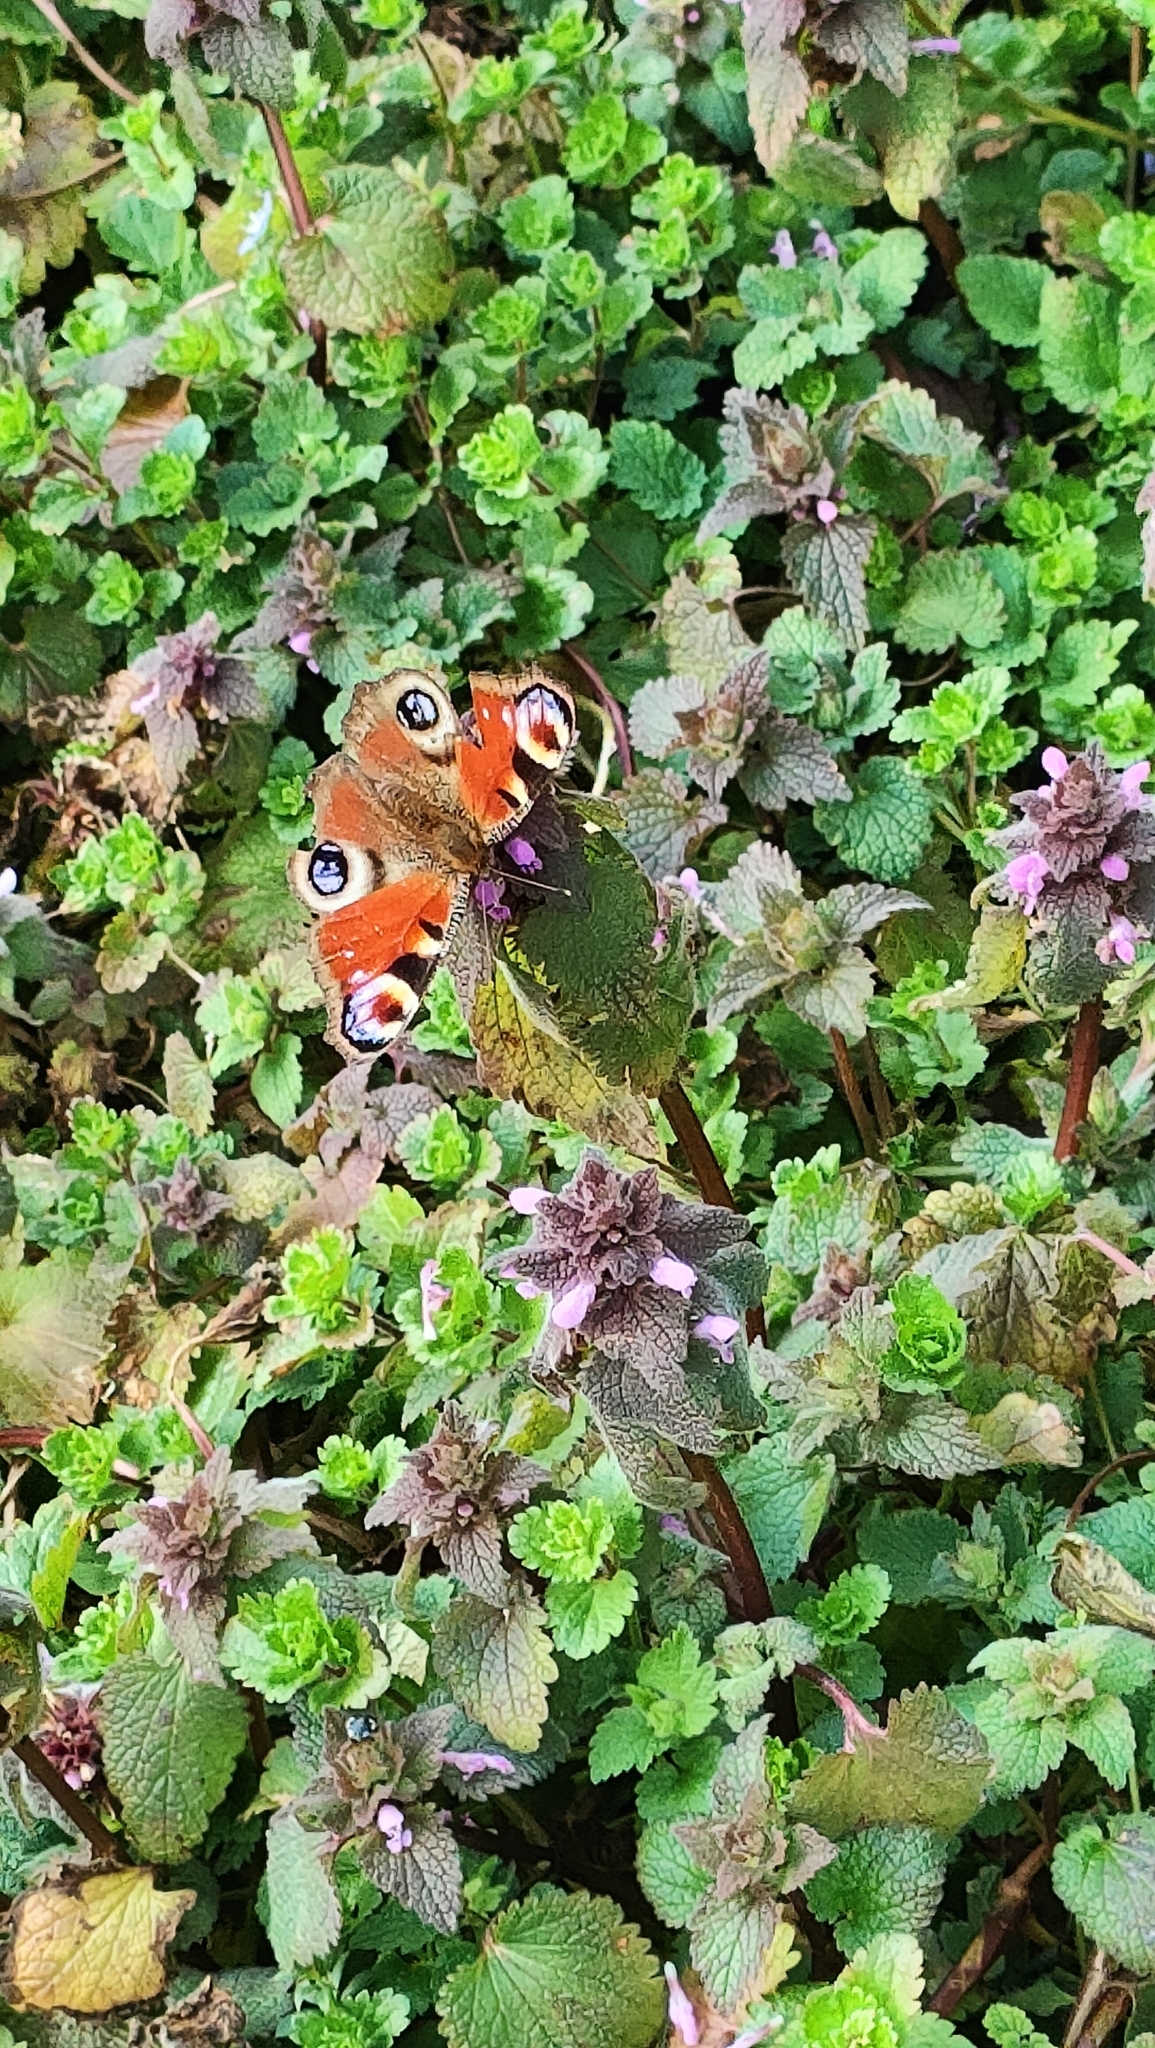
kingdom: Animalia
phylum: Arthropoda
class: Insecta
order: Lepidoptera
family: Nymphalidae
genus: Aglais
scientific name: Aglais io
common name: Peacock
